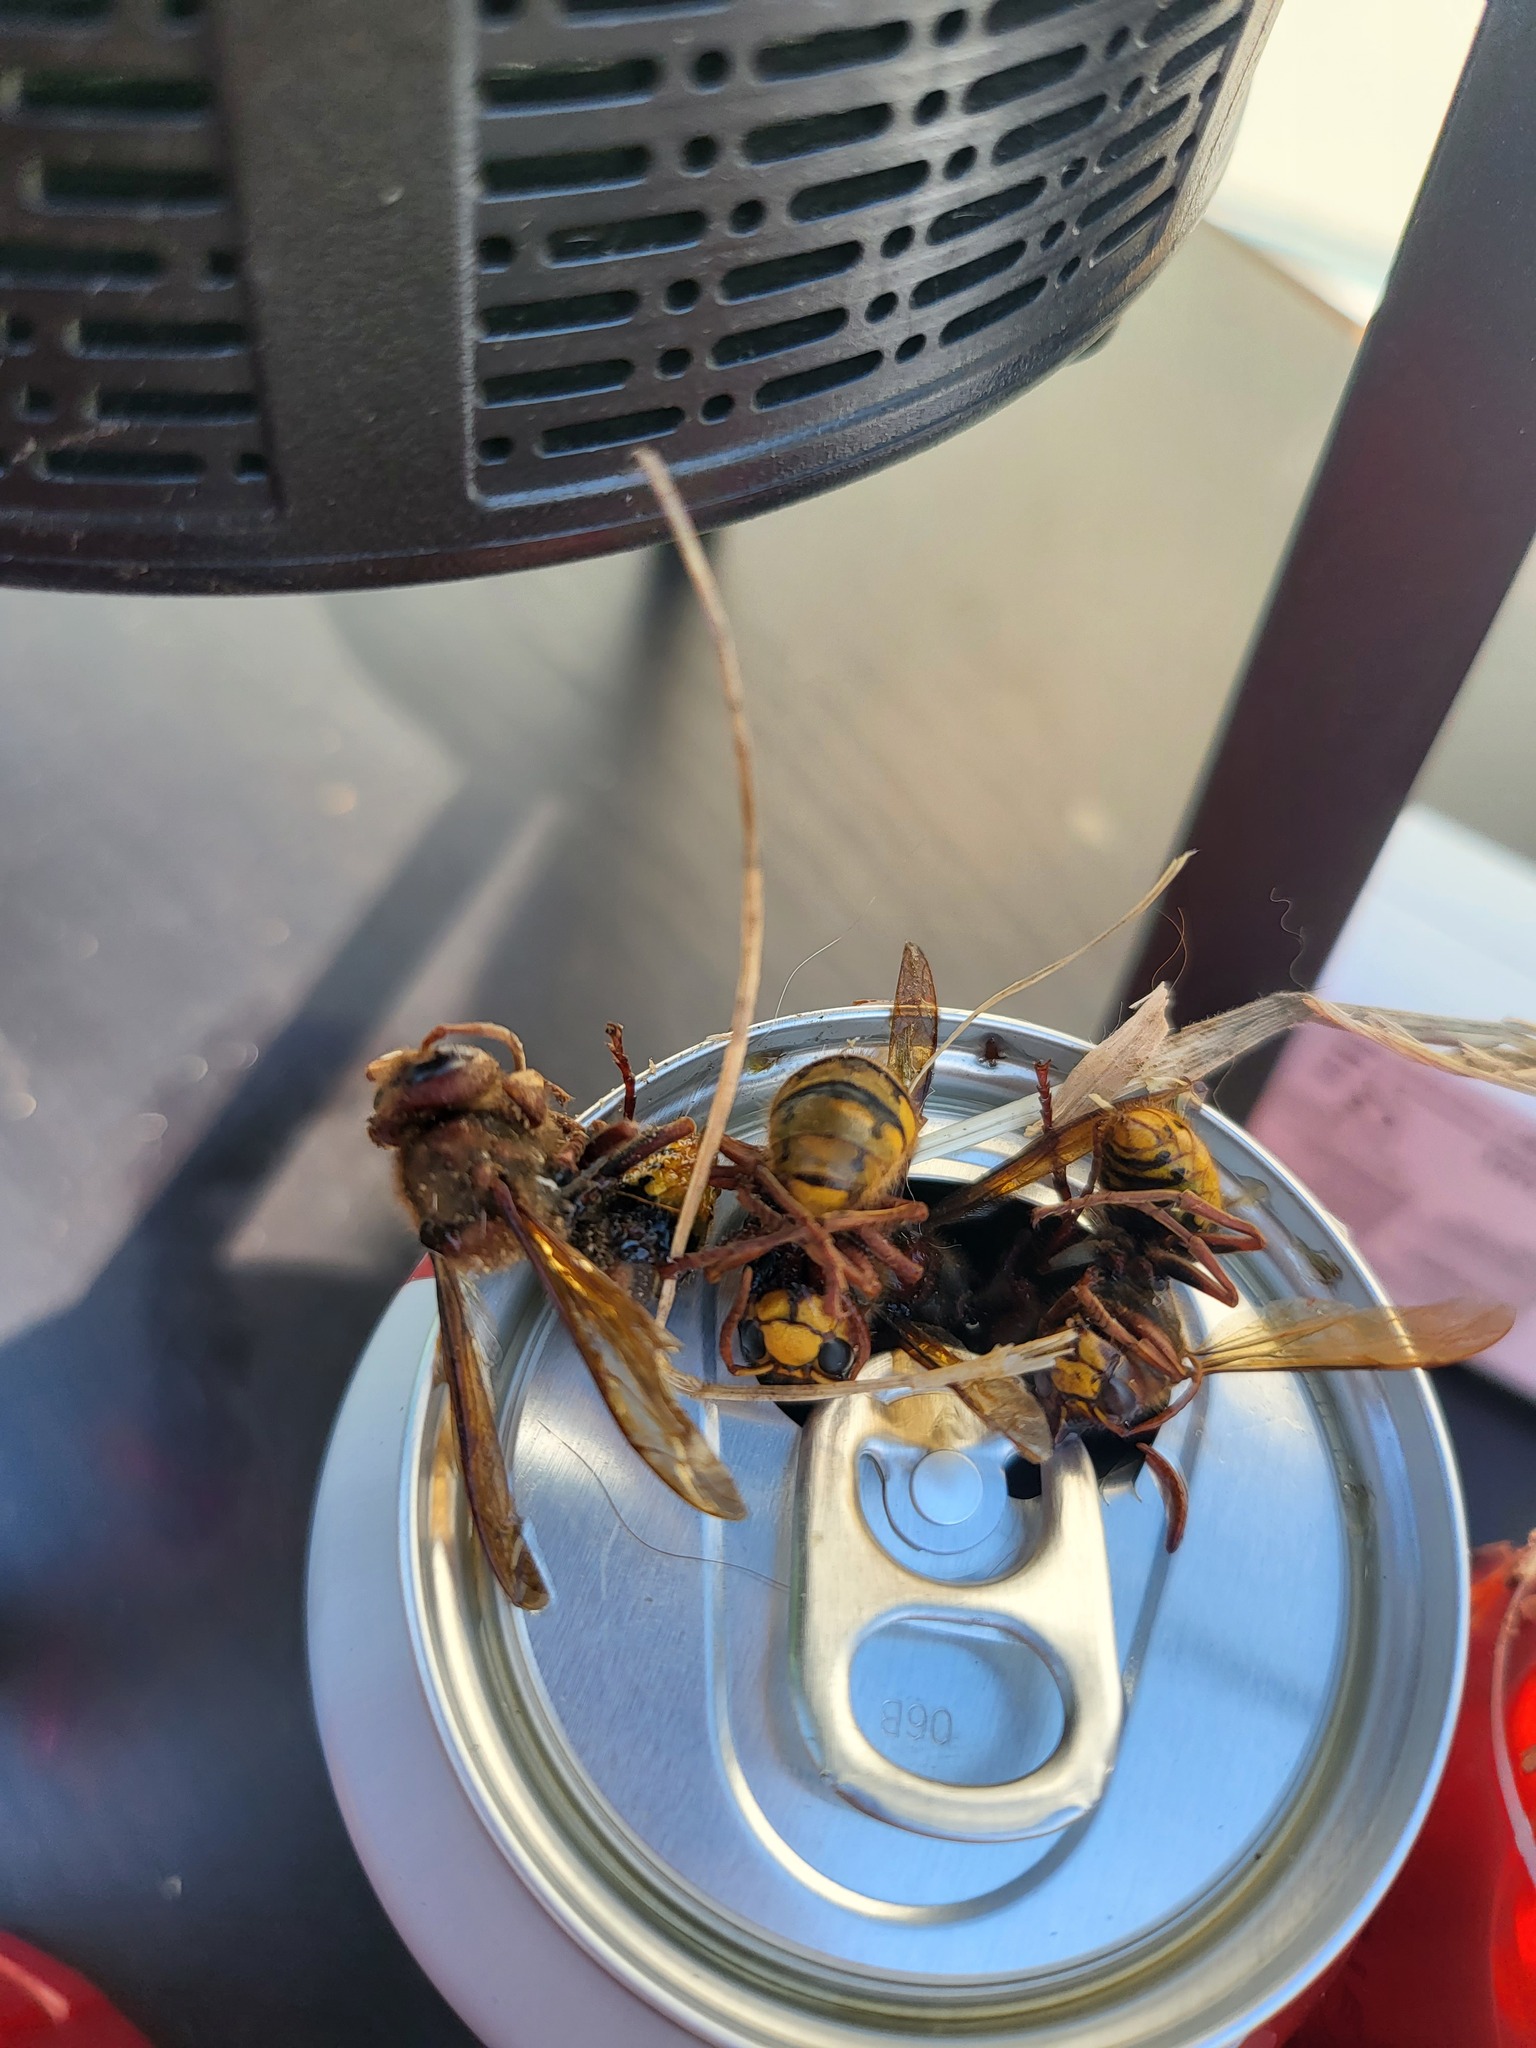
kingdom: Animalia
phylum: Arthropoda
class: Insecta
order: Hymenoptera
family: Vespidae
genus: Vespa
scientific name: Vespa crabro
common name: Hornet
